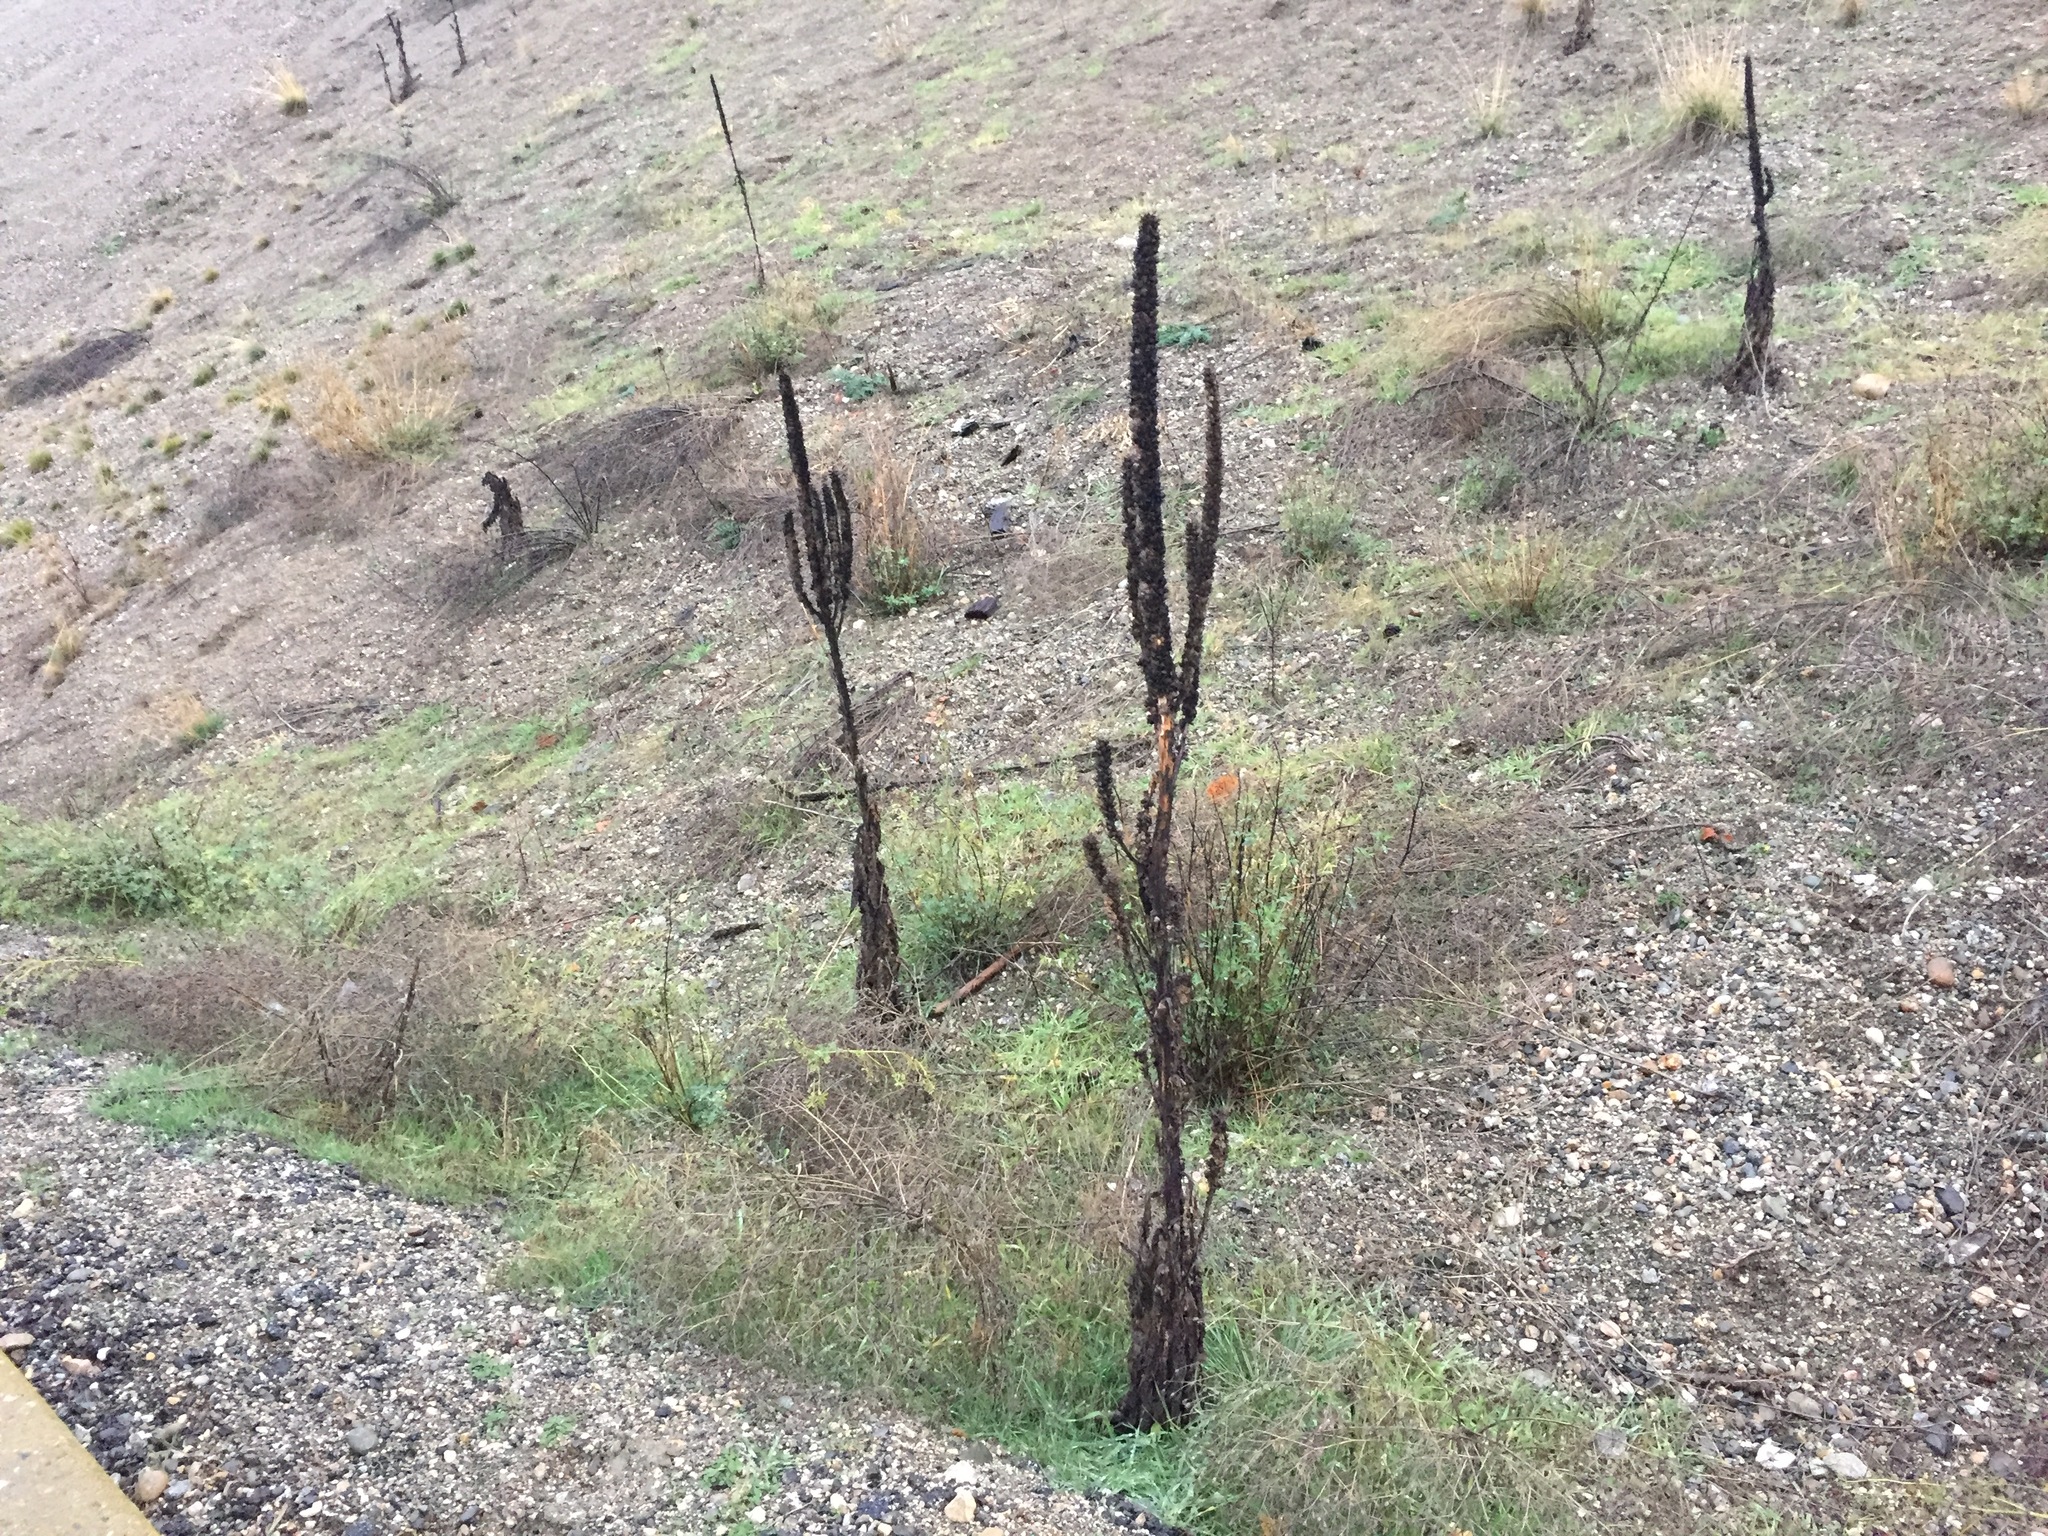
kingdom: Plantae
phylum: Tracheophyta
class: Magnoliopsida
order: Lamiales
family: Scrophulariaceae
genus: Verbascum
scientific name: Verbascum thapsus
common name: Common mullein
